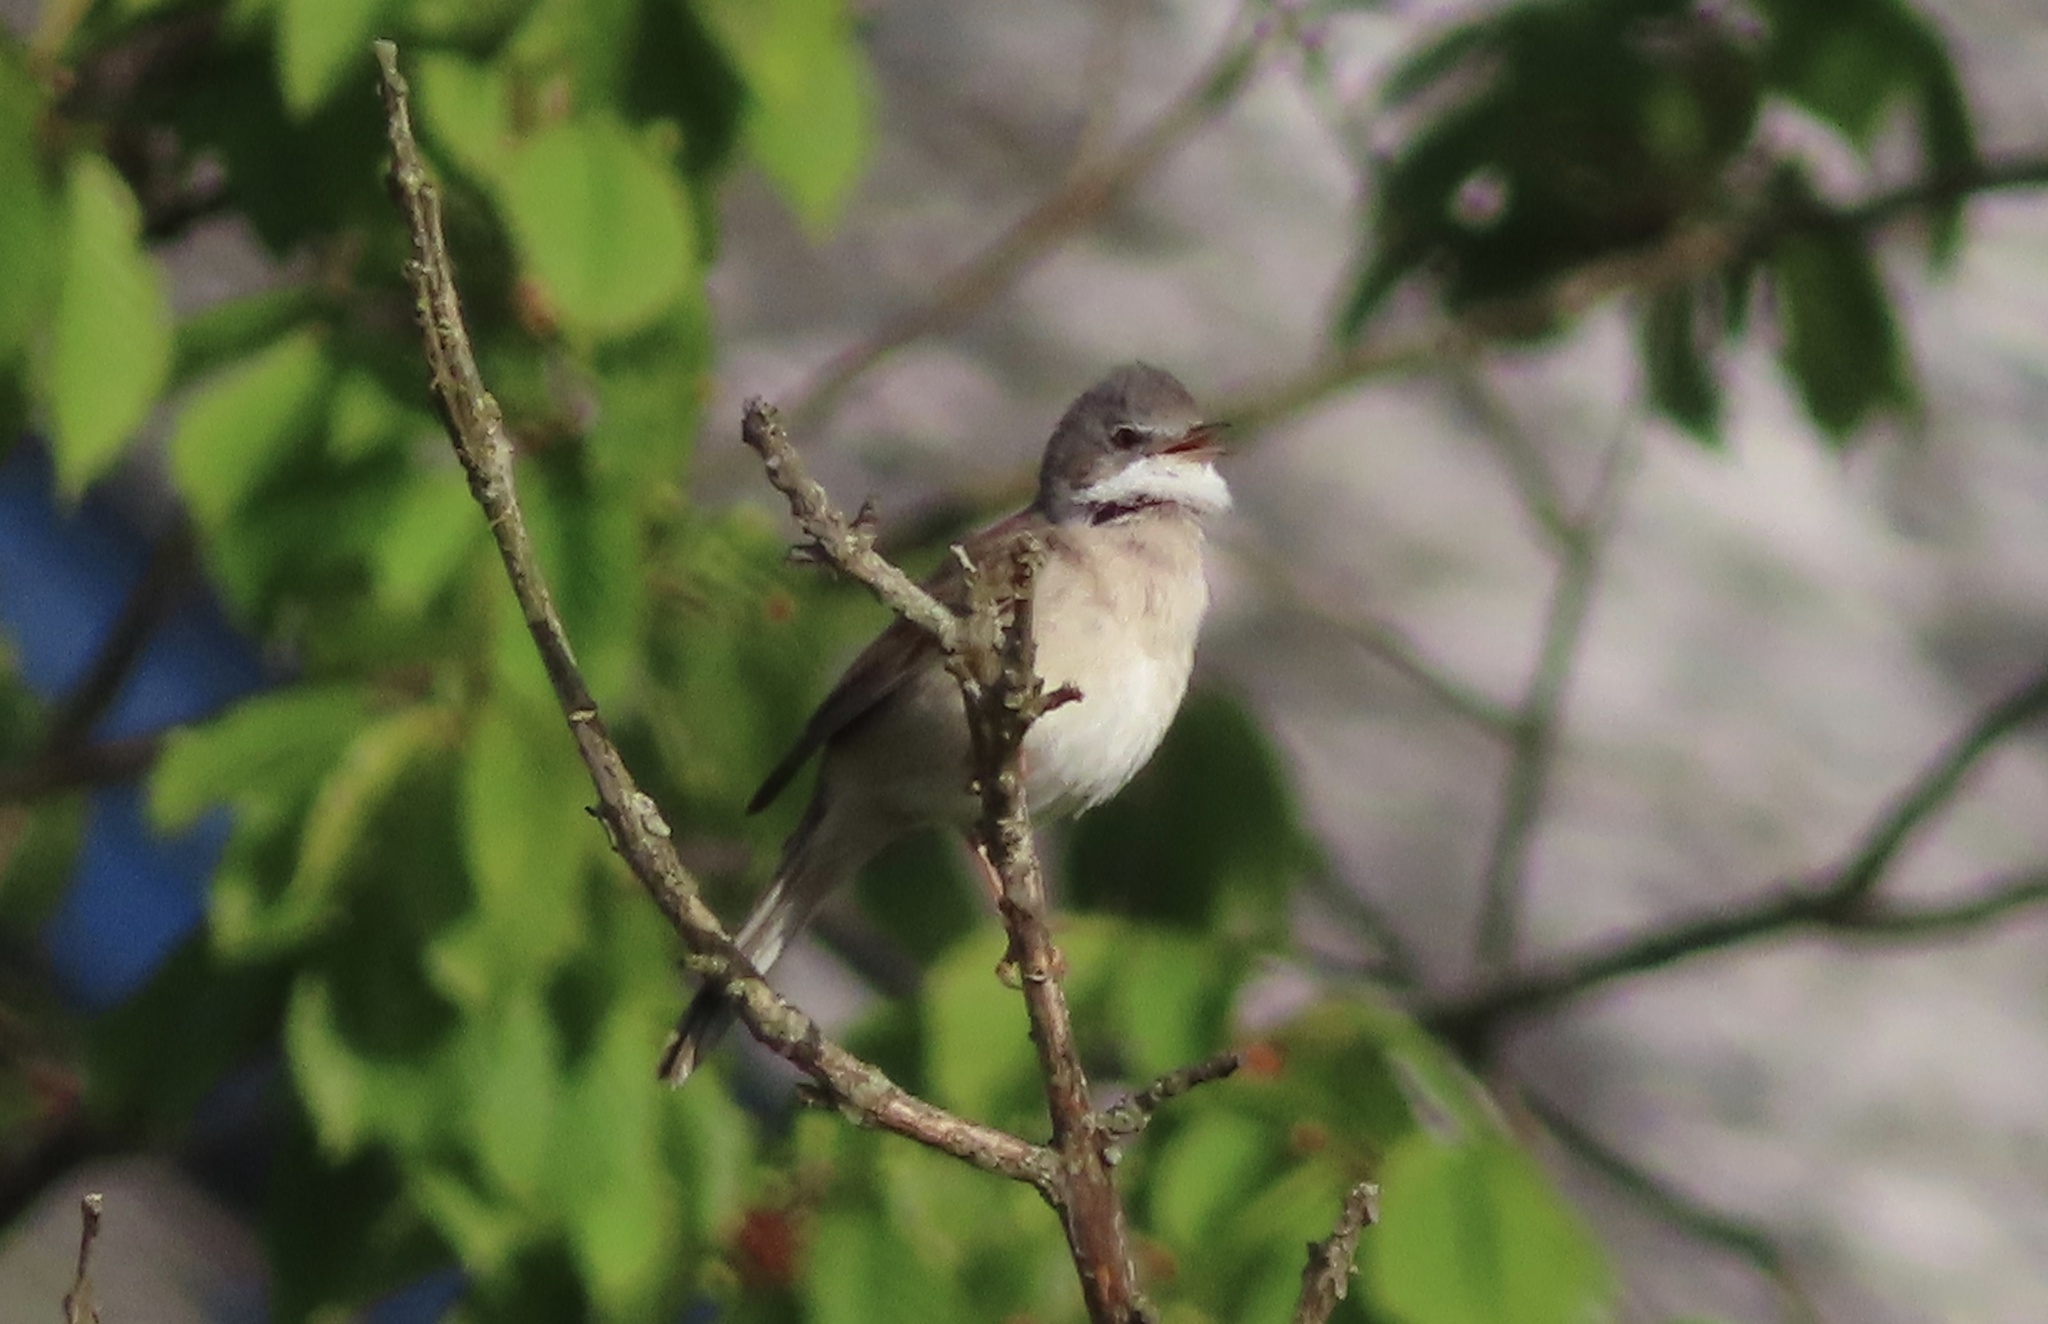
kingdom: Animalia
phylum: Chordata
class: Aves
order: Passeriformes
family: Sylviidae
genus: Sylvia
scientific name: Sylvia communis
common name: Common whitethroat
